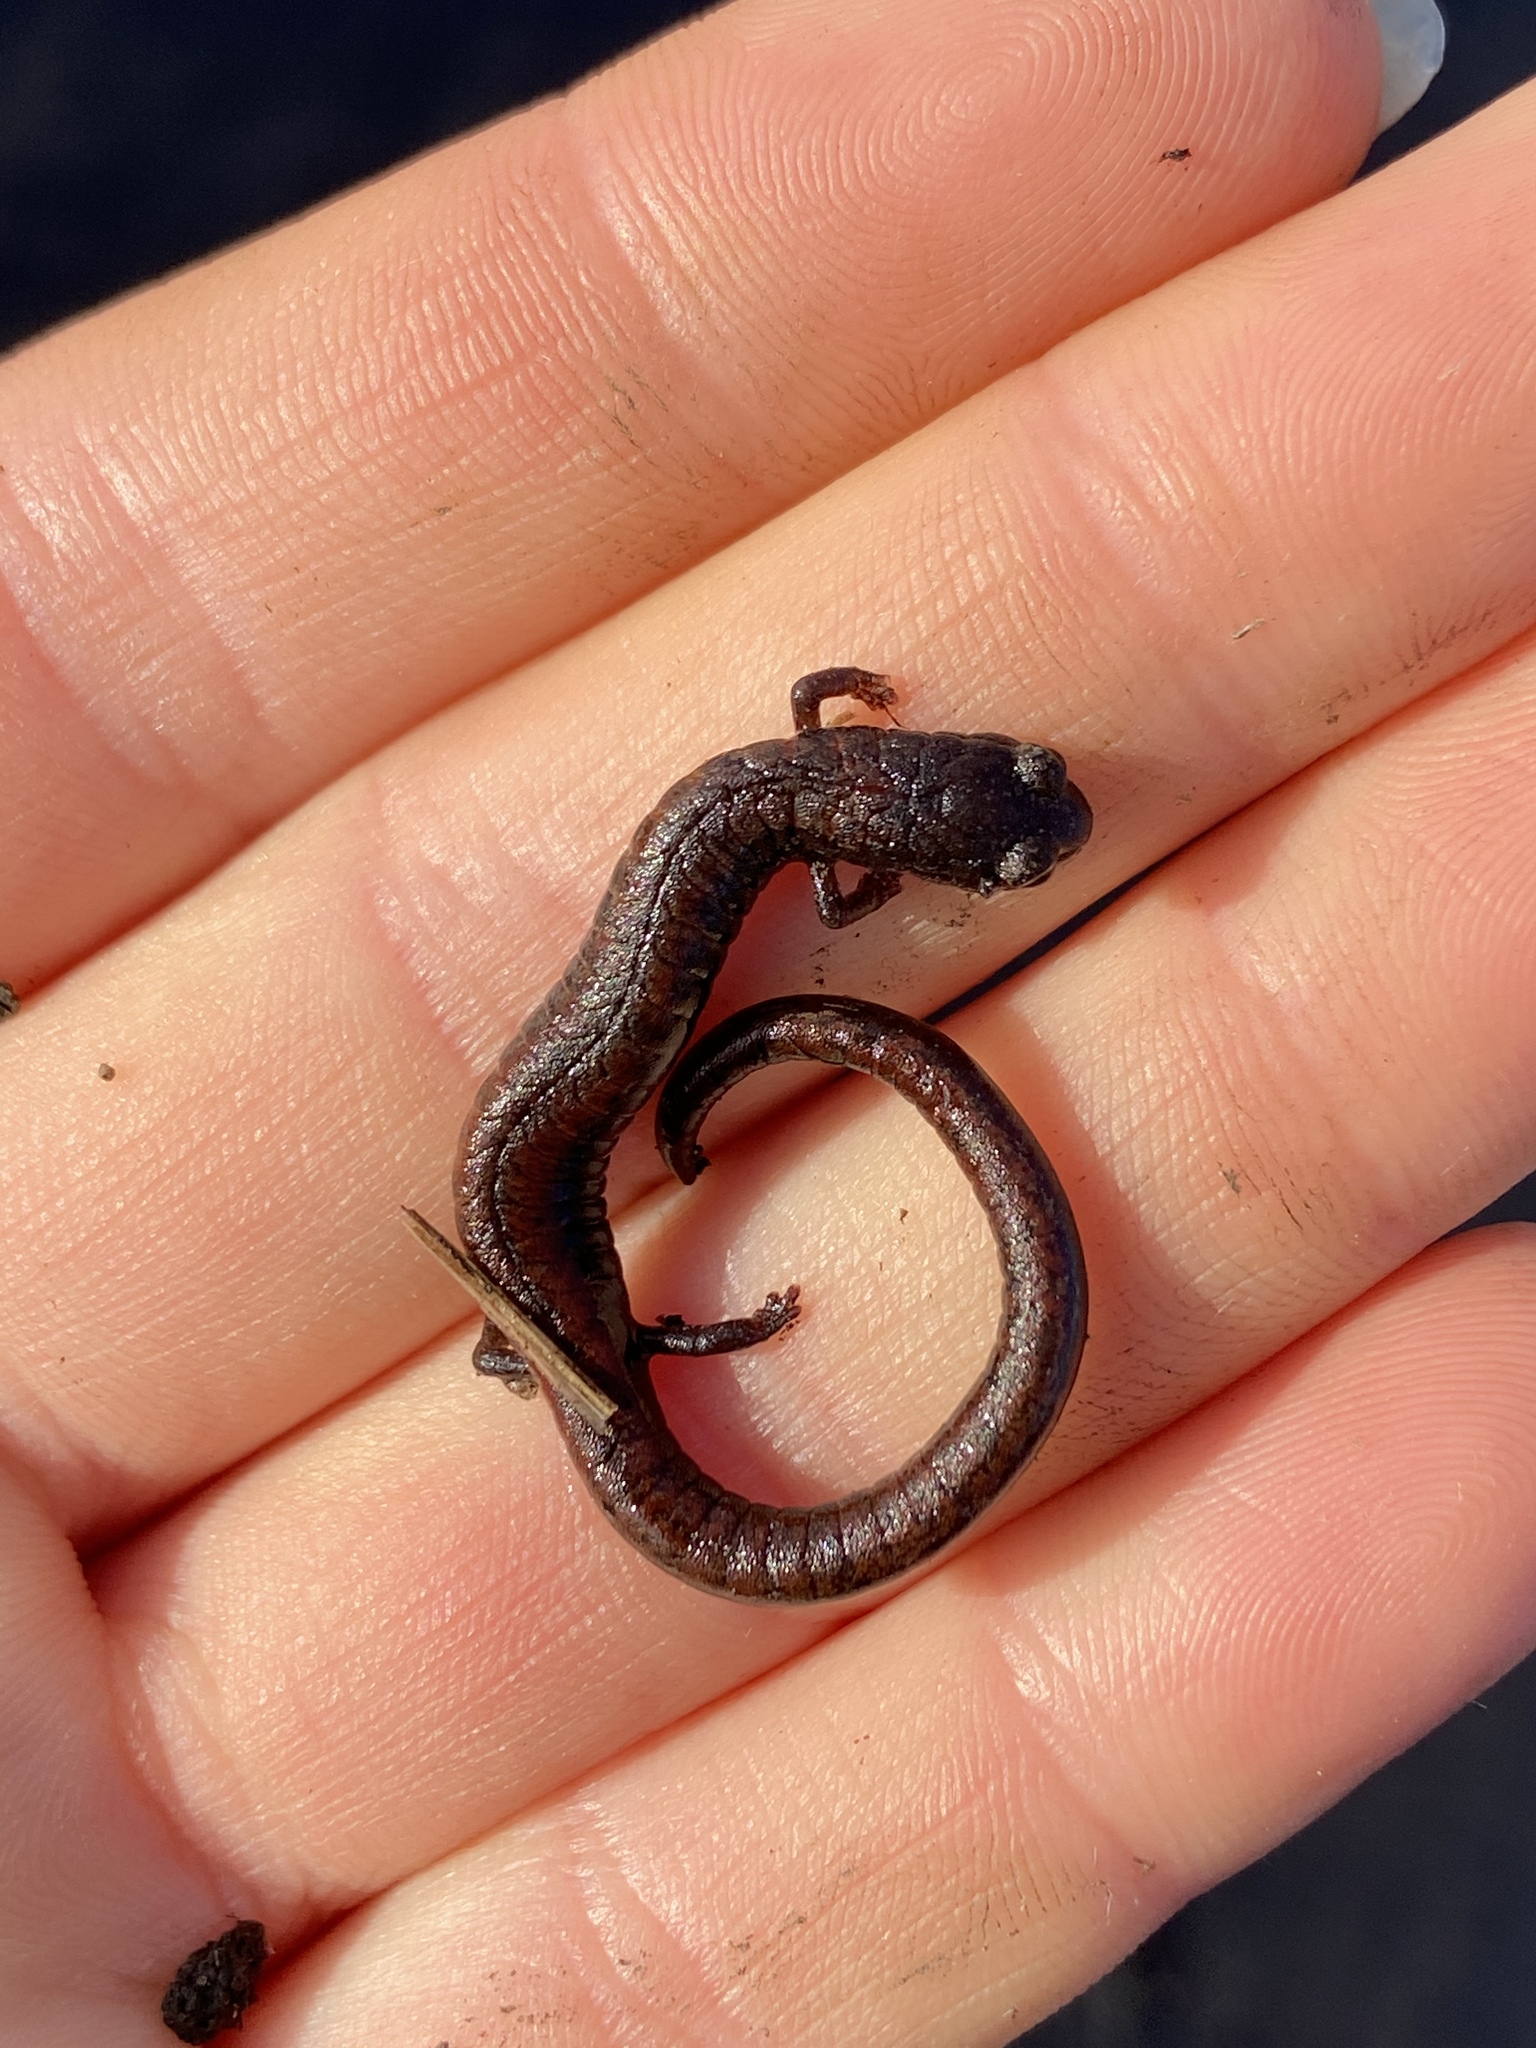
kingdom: Animalia
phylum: Chordata
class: Amphibia
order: Caudata
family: Plethodontidae
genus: Batrachoseps
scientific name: Batrachoseps attenuatus
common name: California slender salamander
